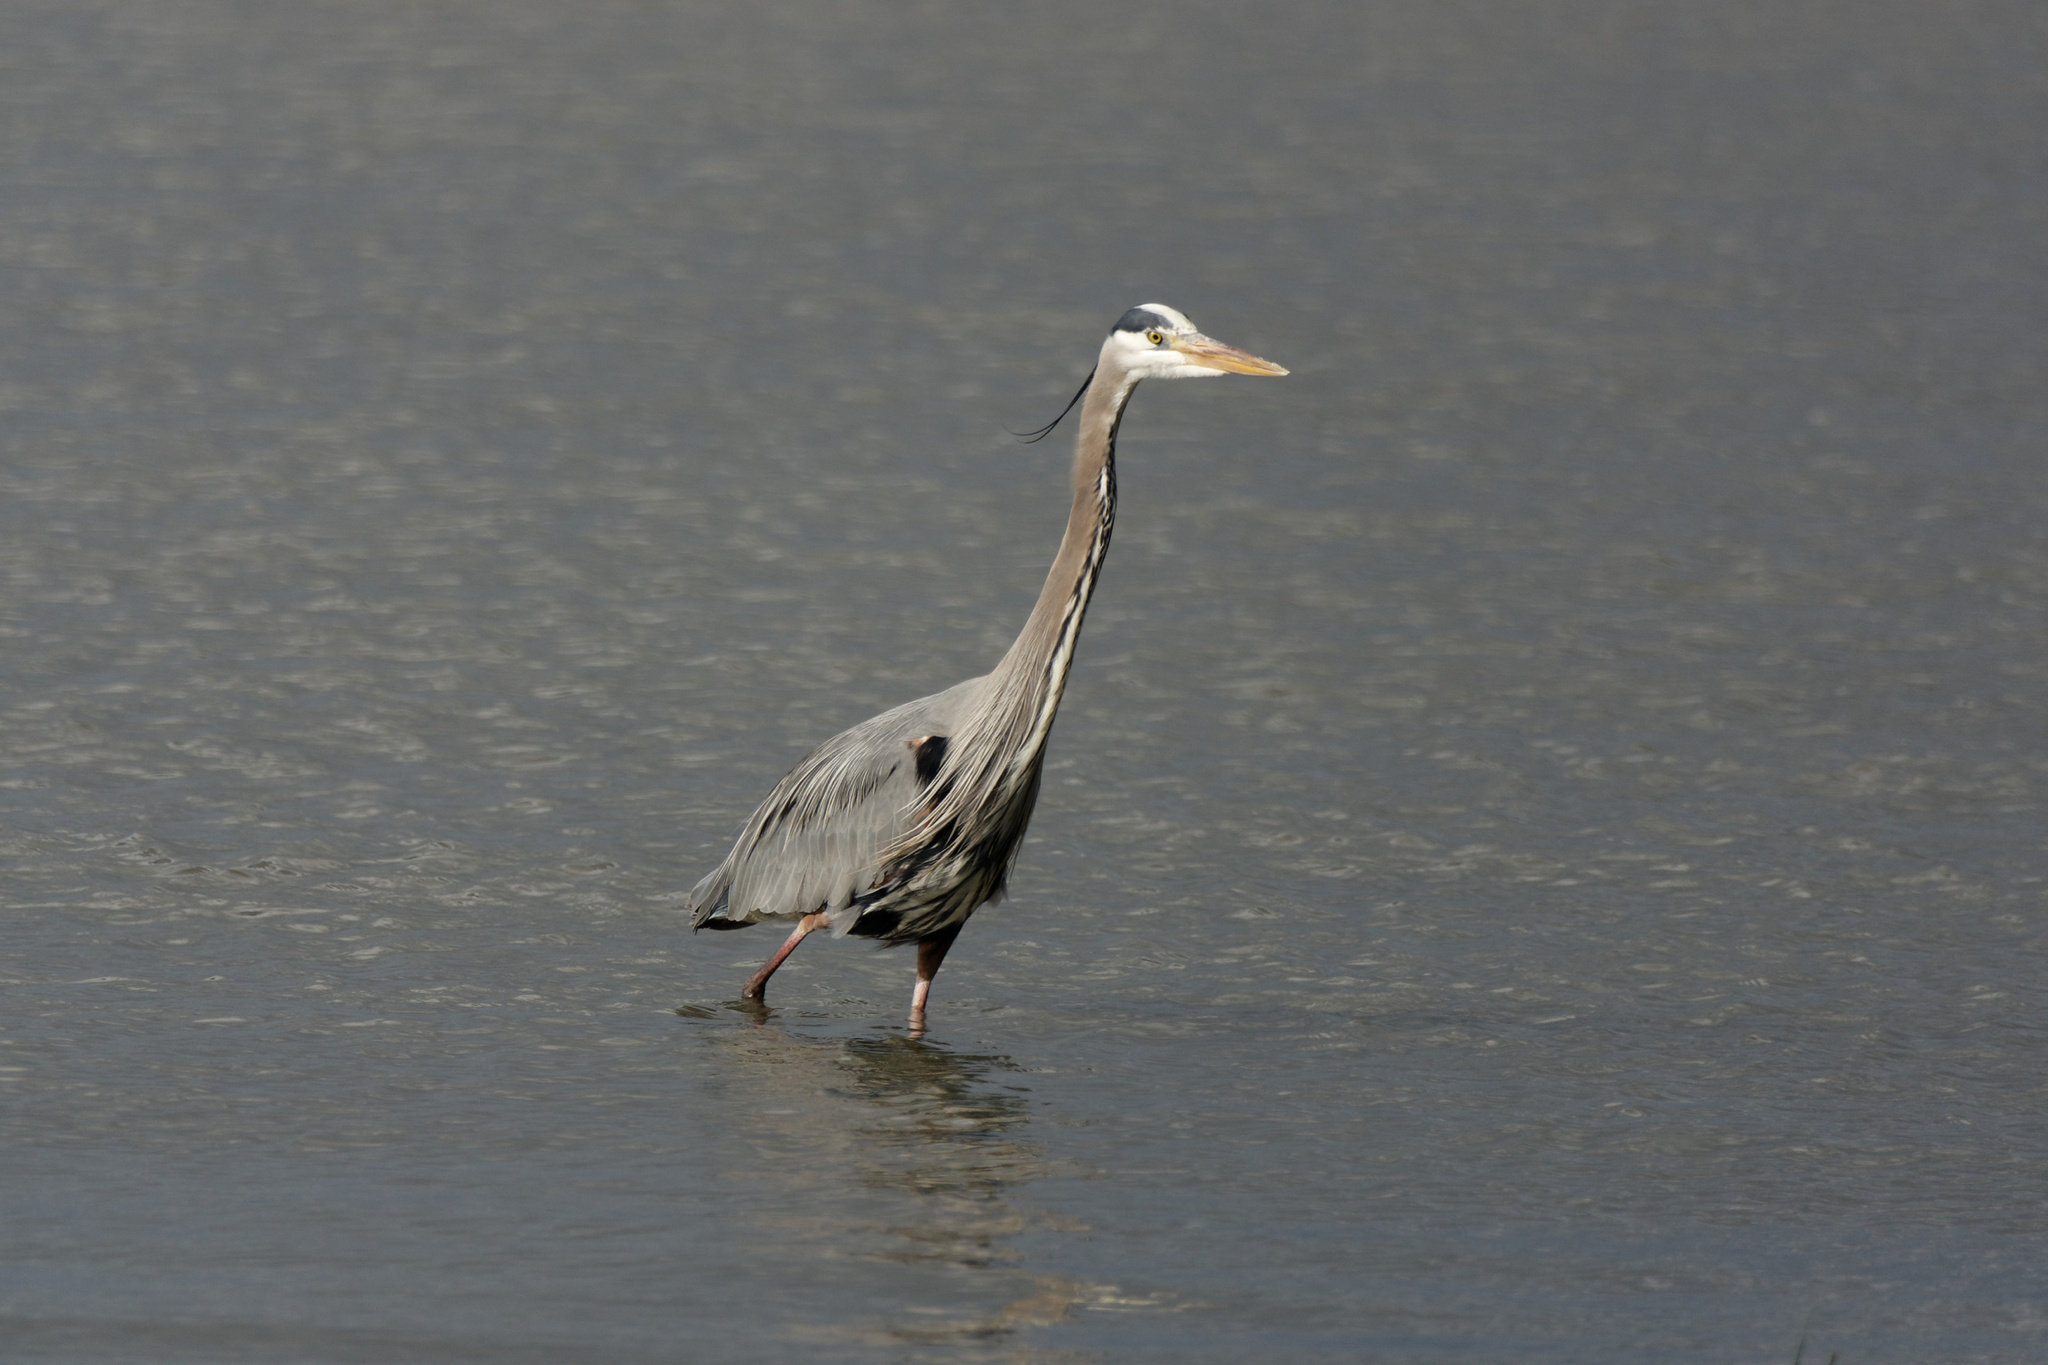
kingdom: Animalia
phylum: Chordata
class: Aves
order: Pelecaniformes
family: Ardeidae
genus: Ardea
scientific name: Ardea herodias
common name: Great blue heron
